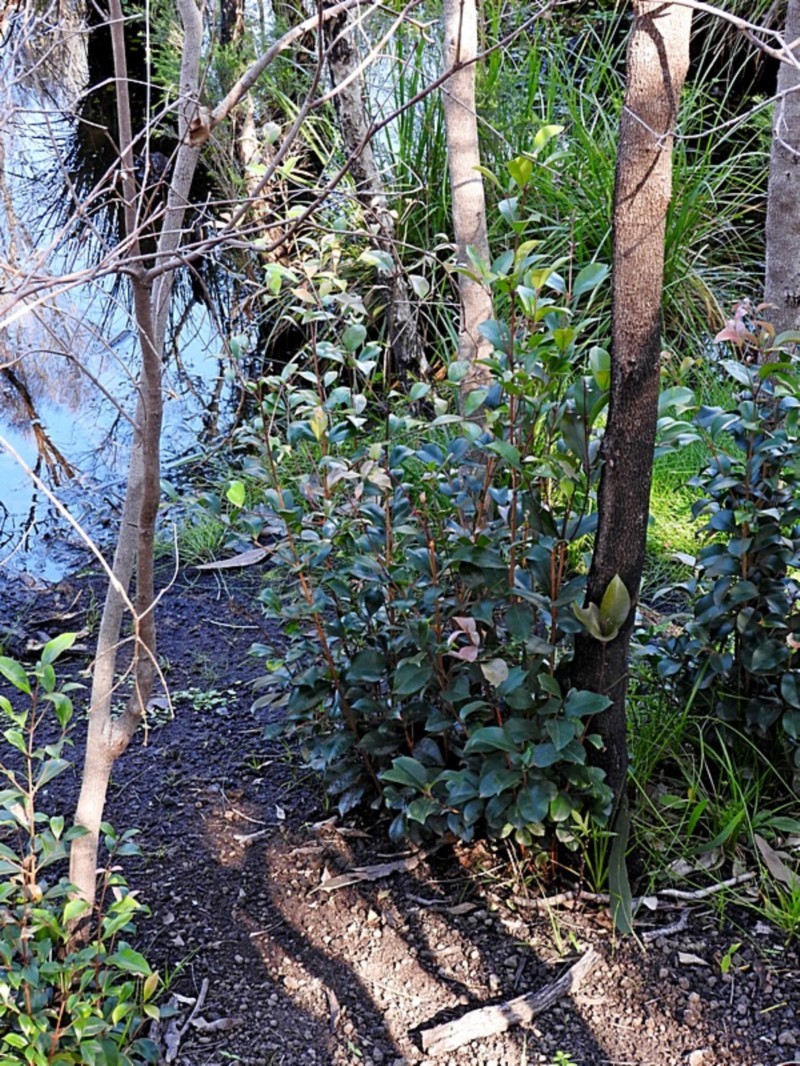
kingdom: Plantae
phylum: Tracheophyta
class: Magnoliopsida
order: Myrtales
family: Myrtaceae
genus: Syzygium
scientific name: Syzygium smithii
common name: Lilly-pilly
